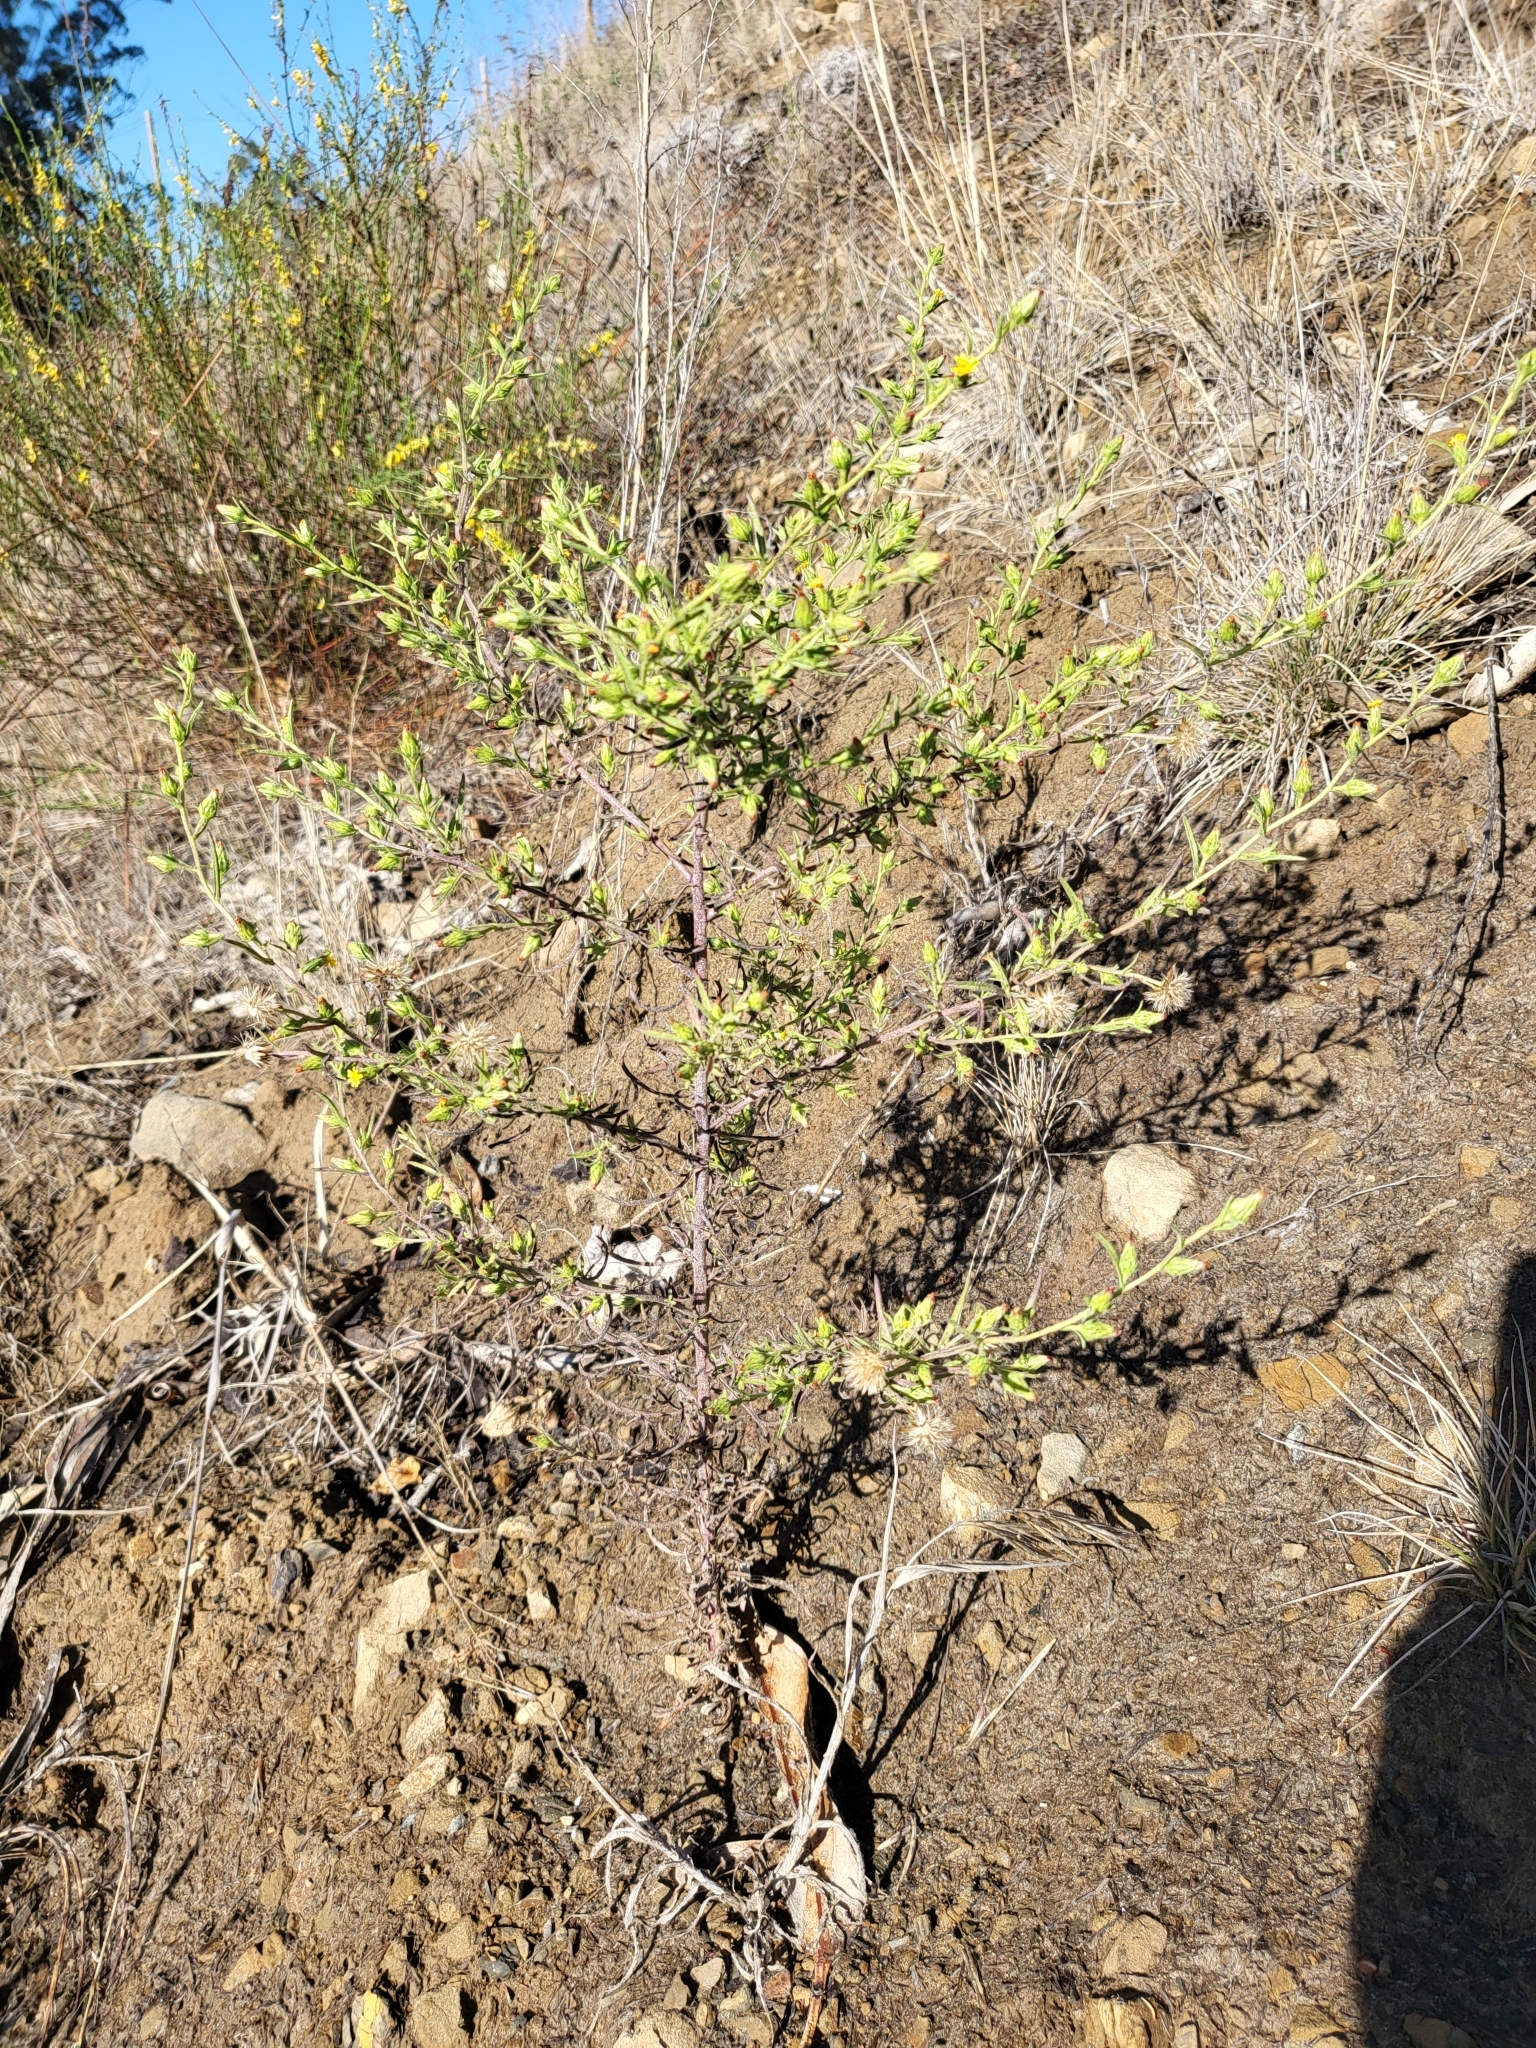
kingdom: Plantae
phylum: Tracheophyta
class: Magnoliopsida
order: Asterales
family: Asteraceae
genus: Dittrichia
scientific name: Dittrichia graveolens
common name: Stinking fleabane
